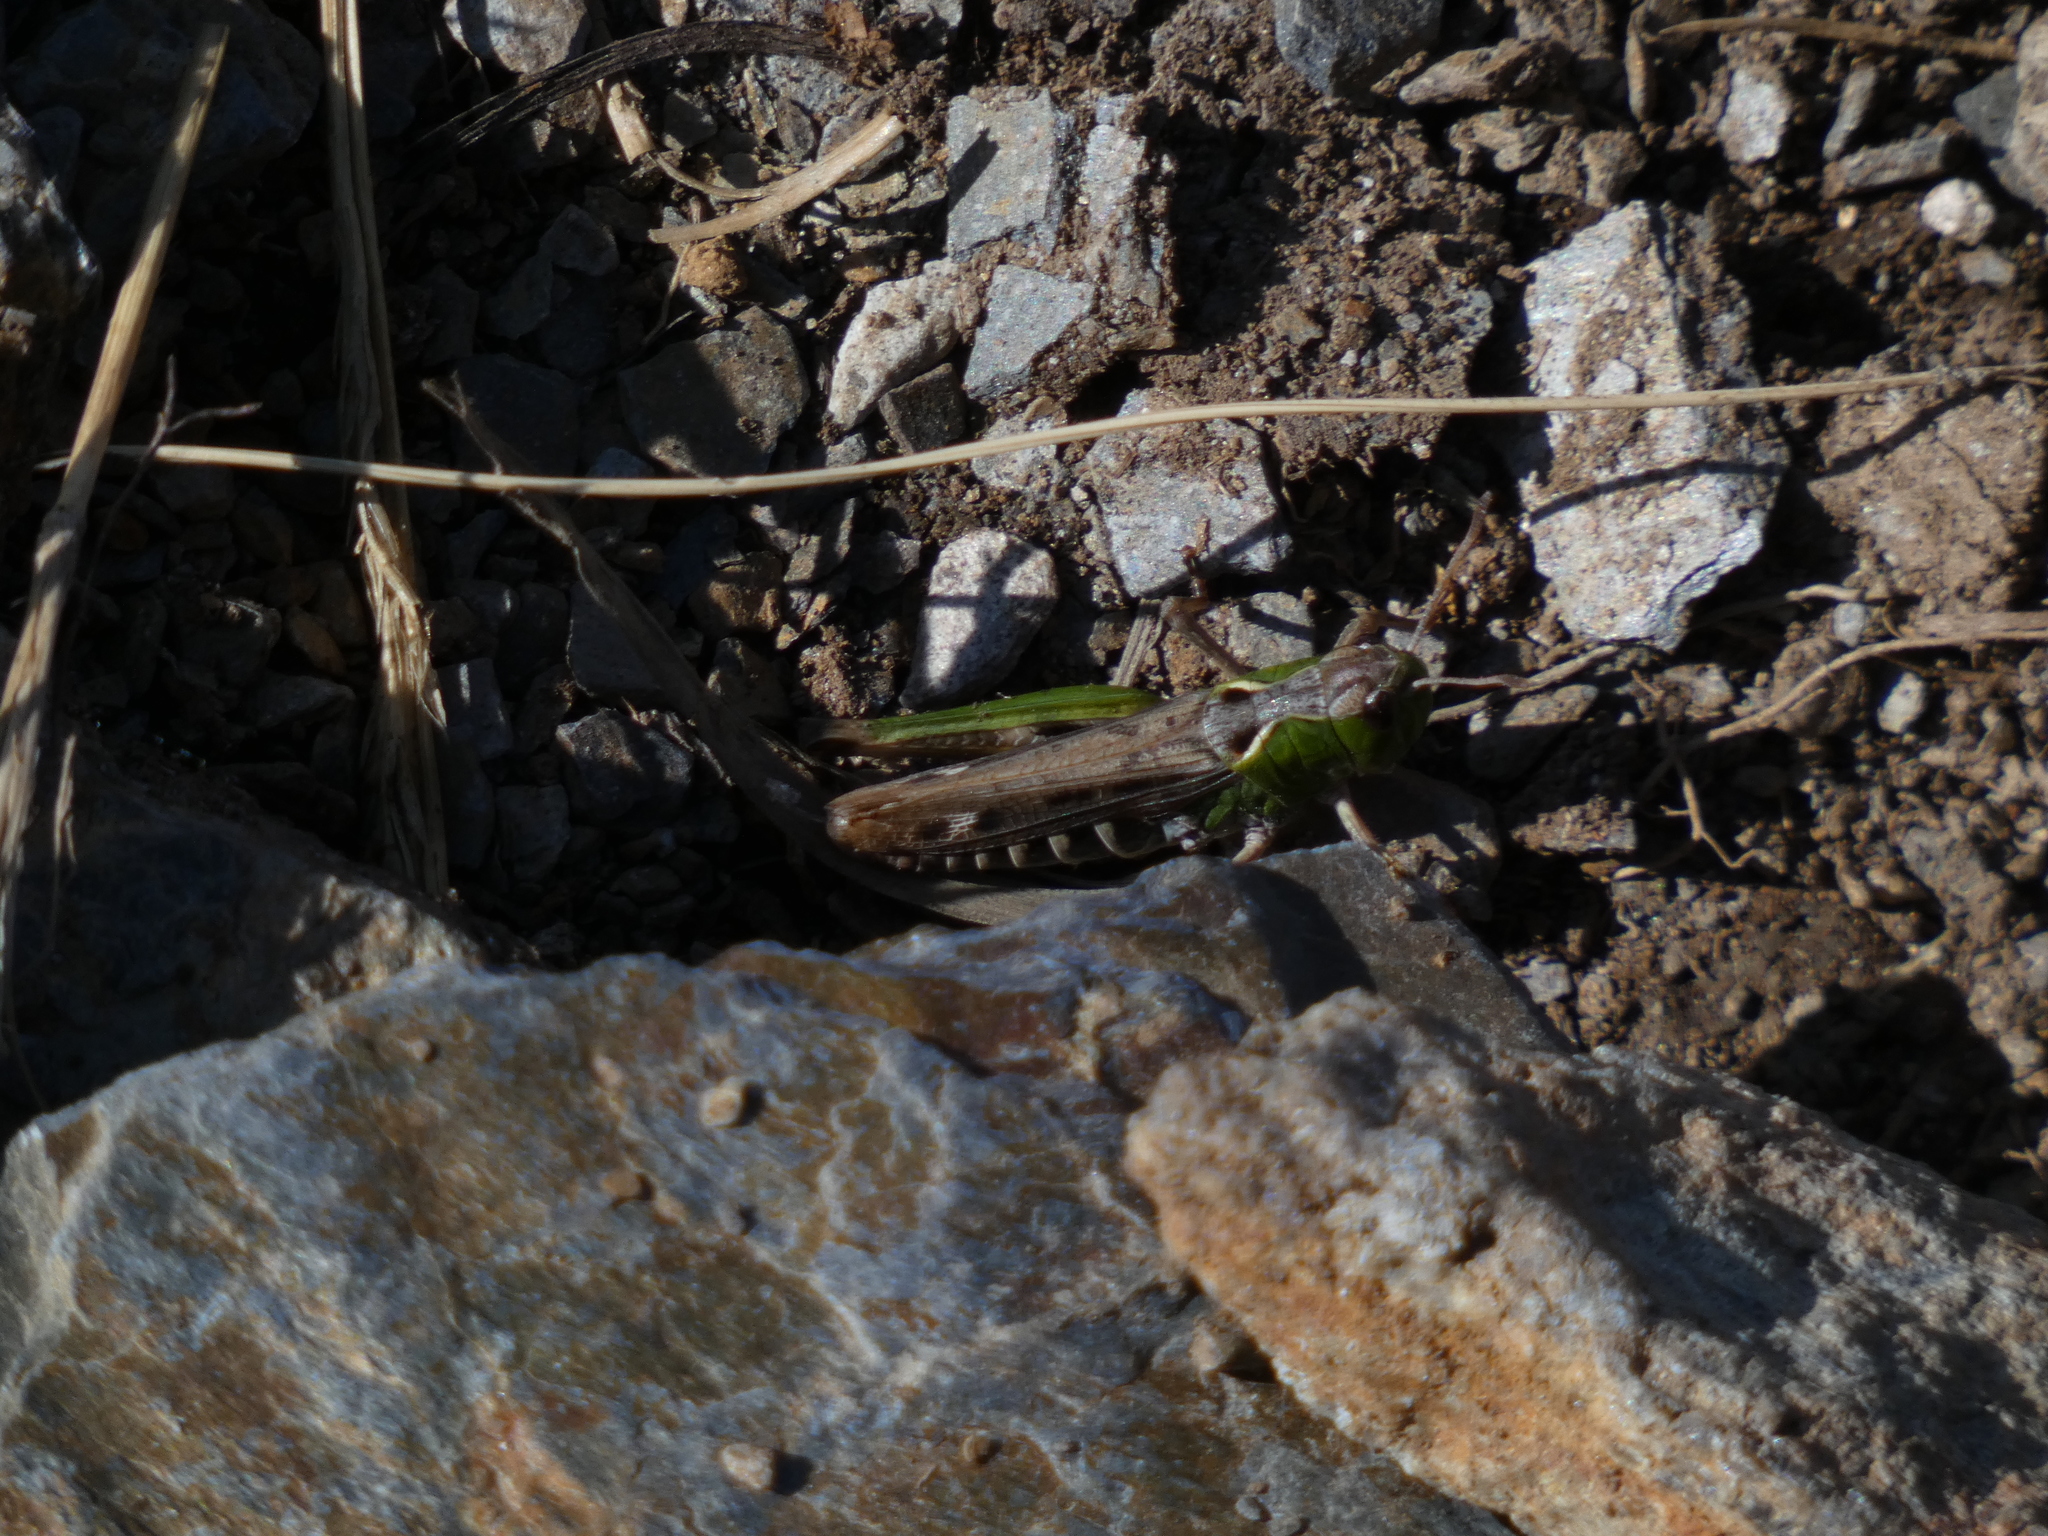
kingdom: Animalia
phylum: Arthropoda
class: Insecta
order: Orthoptera
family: Acrididae
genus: Gomphocerus
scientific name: Gomphocerus sibiricus
